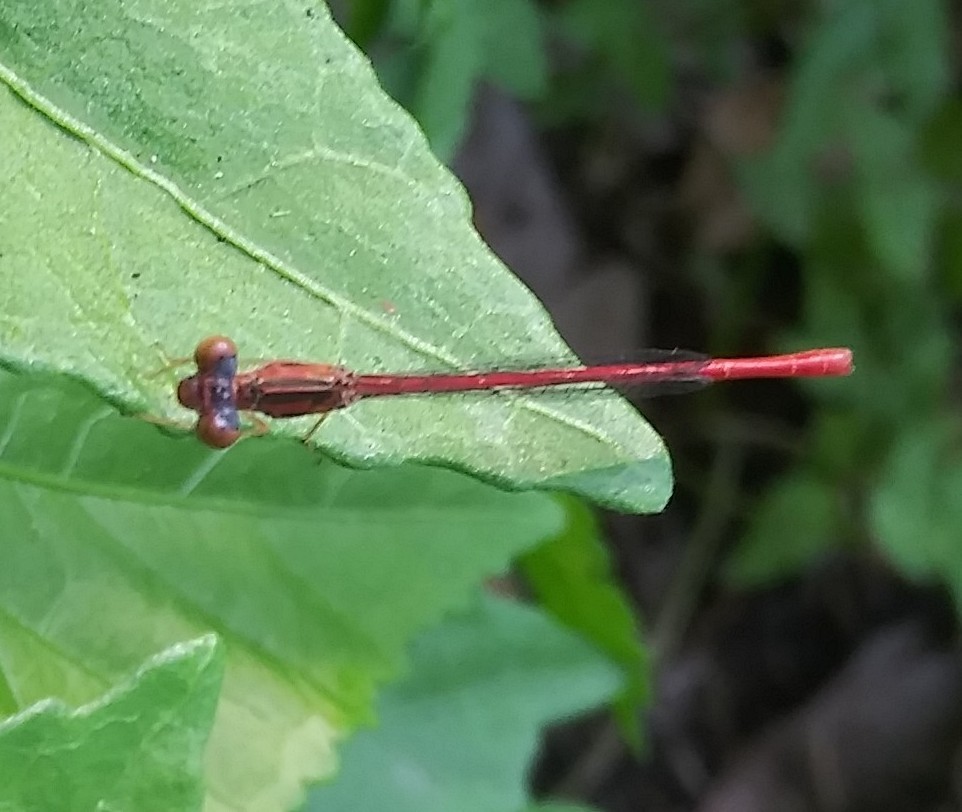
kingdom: Animalia
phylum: Arthropoda
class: Insecta
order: Odonata
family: Coenagrionidae
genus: Telebasis
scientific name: Telebasis byersi
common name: Duckweed firetail
